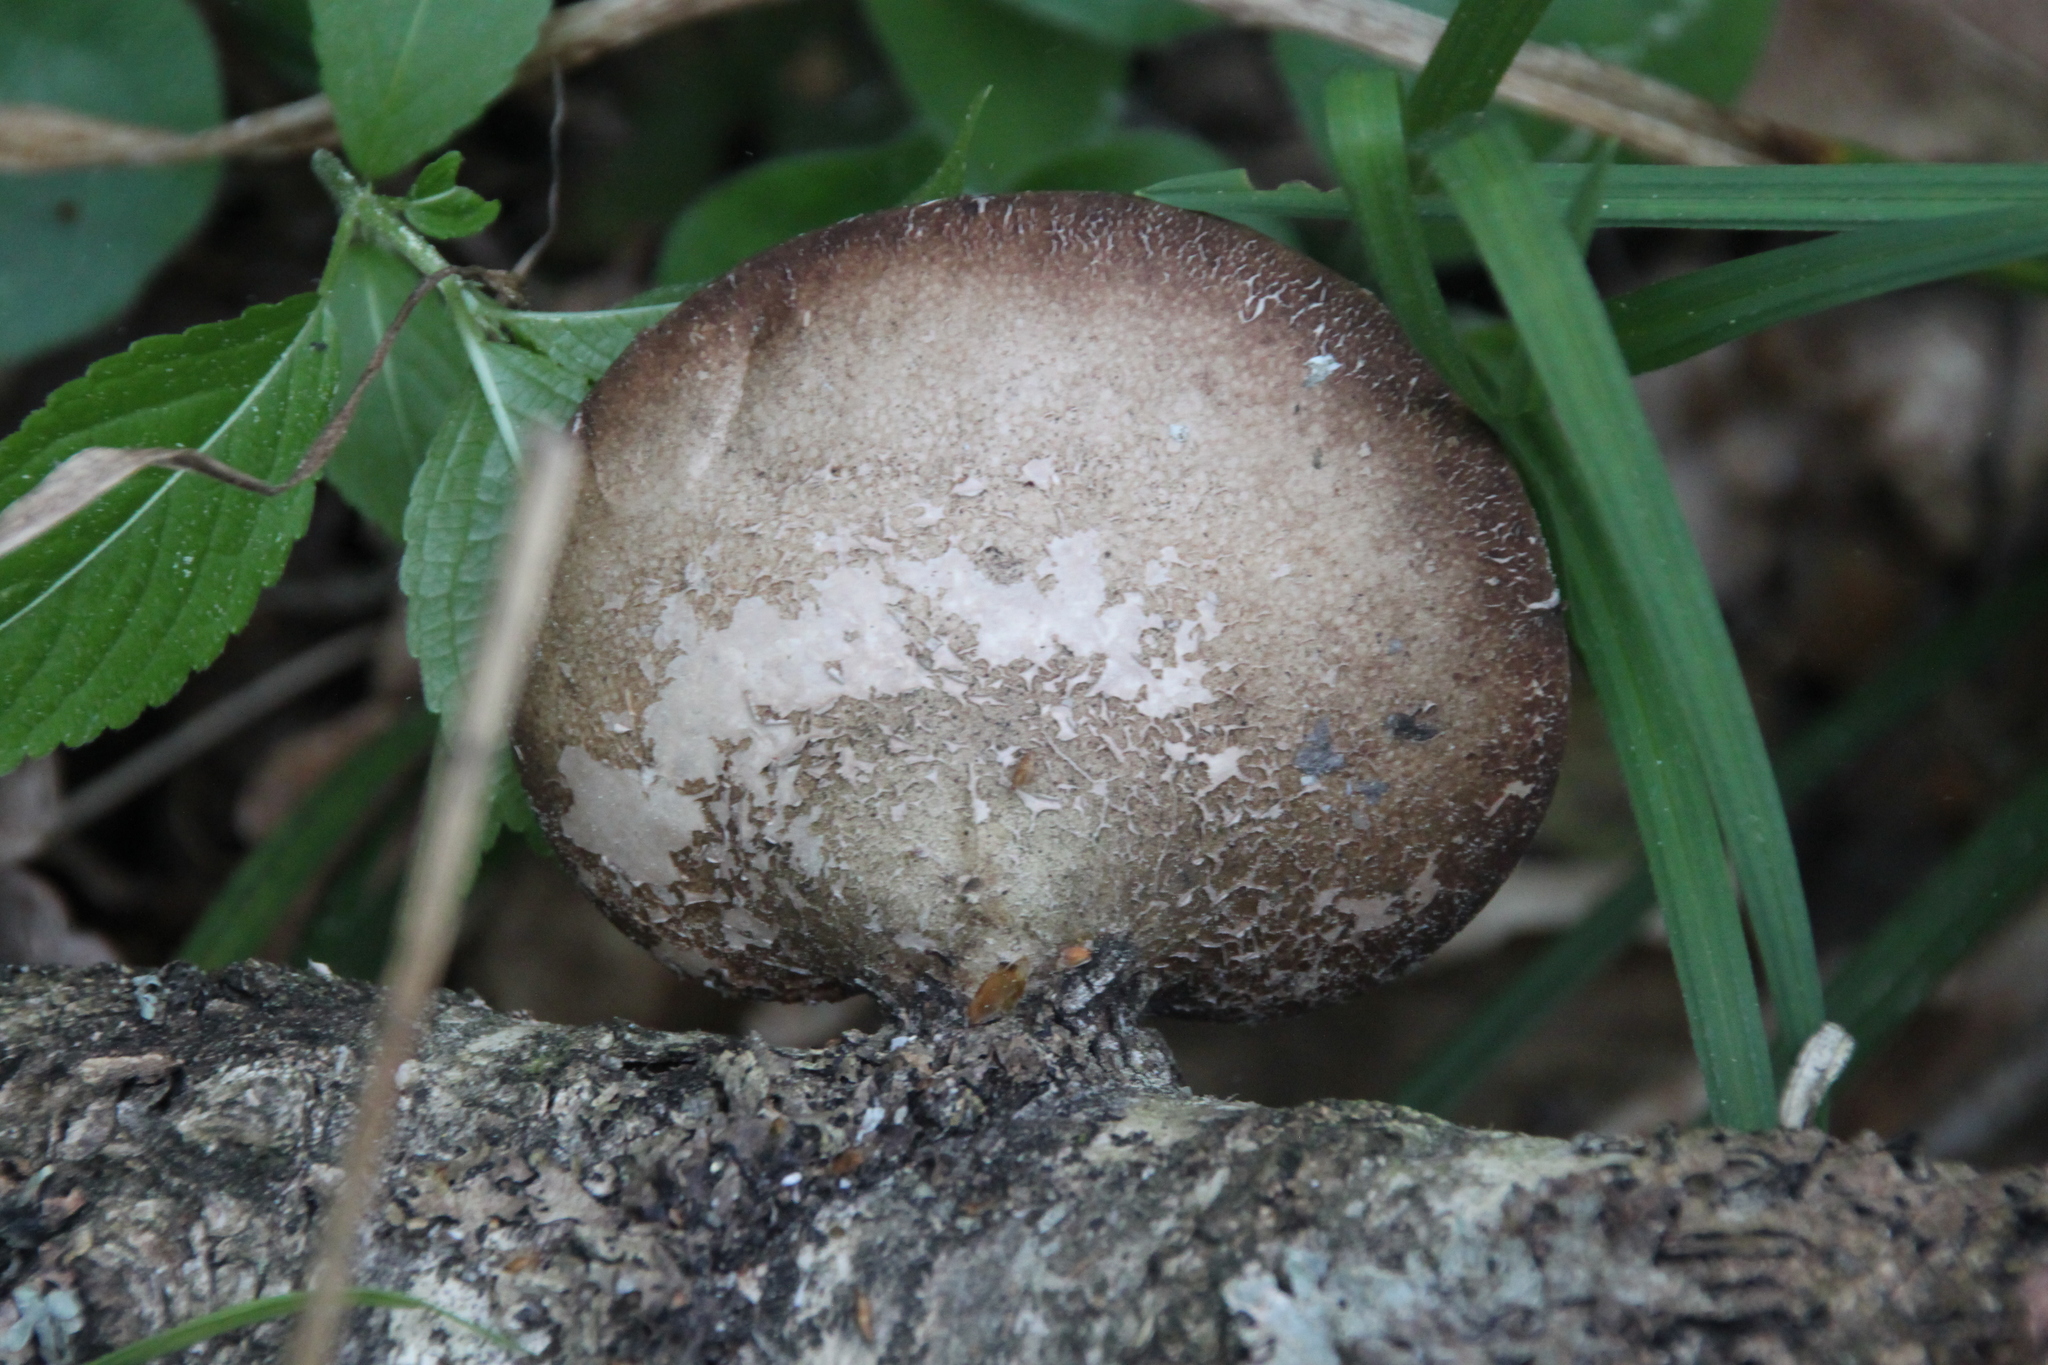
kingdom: Fungi
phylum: Basidiomycota
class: Agaricomycetes
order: Polyporales
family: Fomitopsidaceae
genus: Fomitopsis
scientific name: Fomitopsis betulina
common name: Birch polypore
